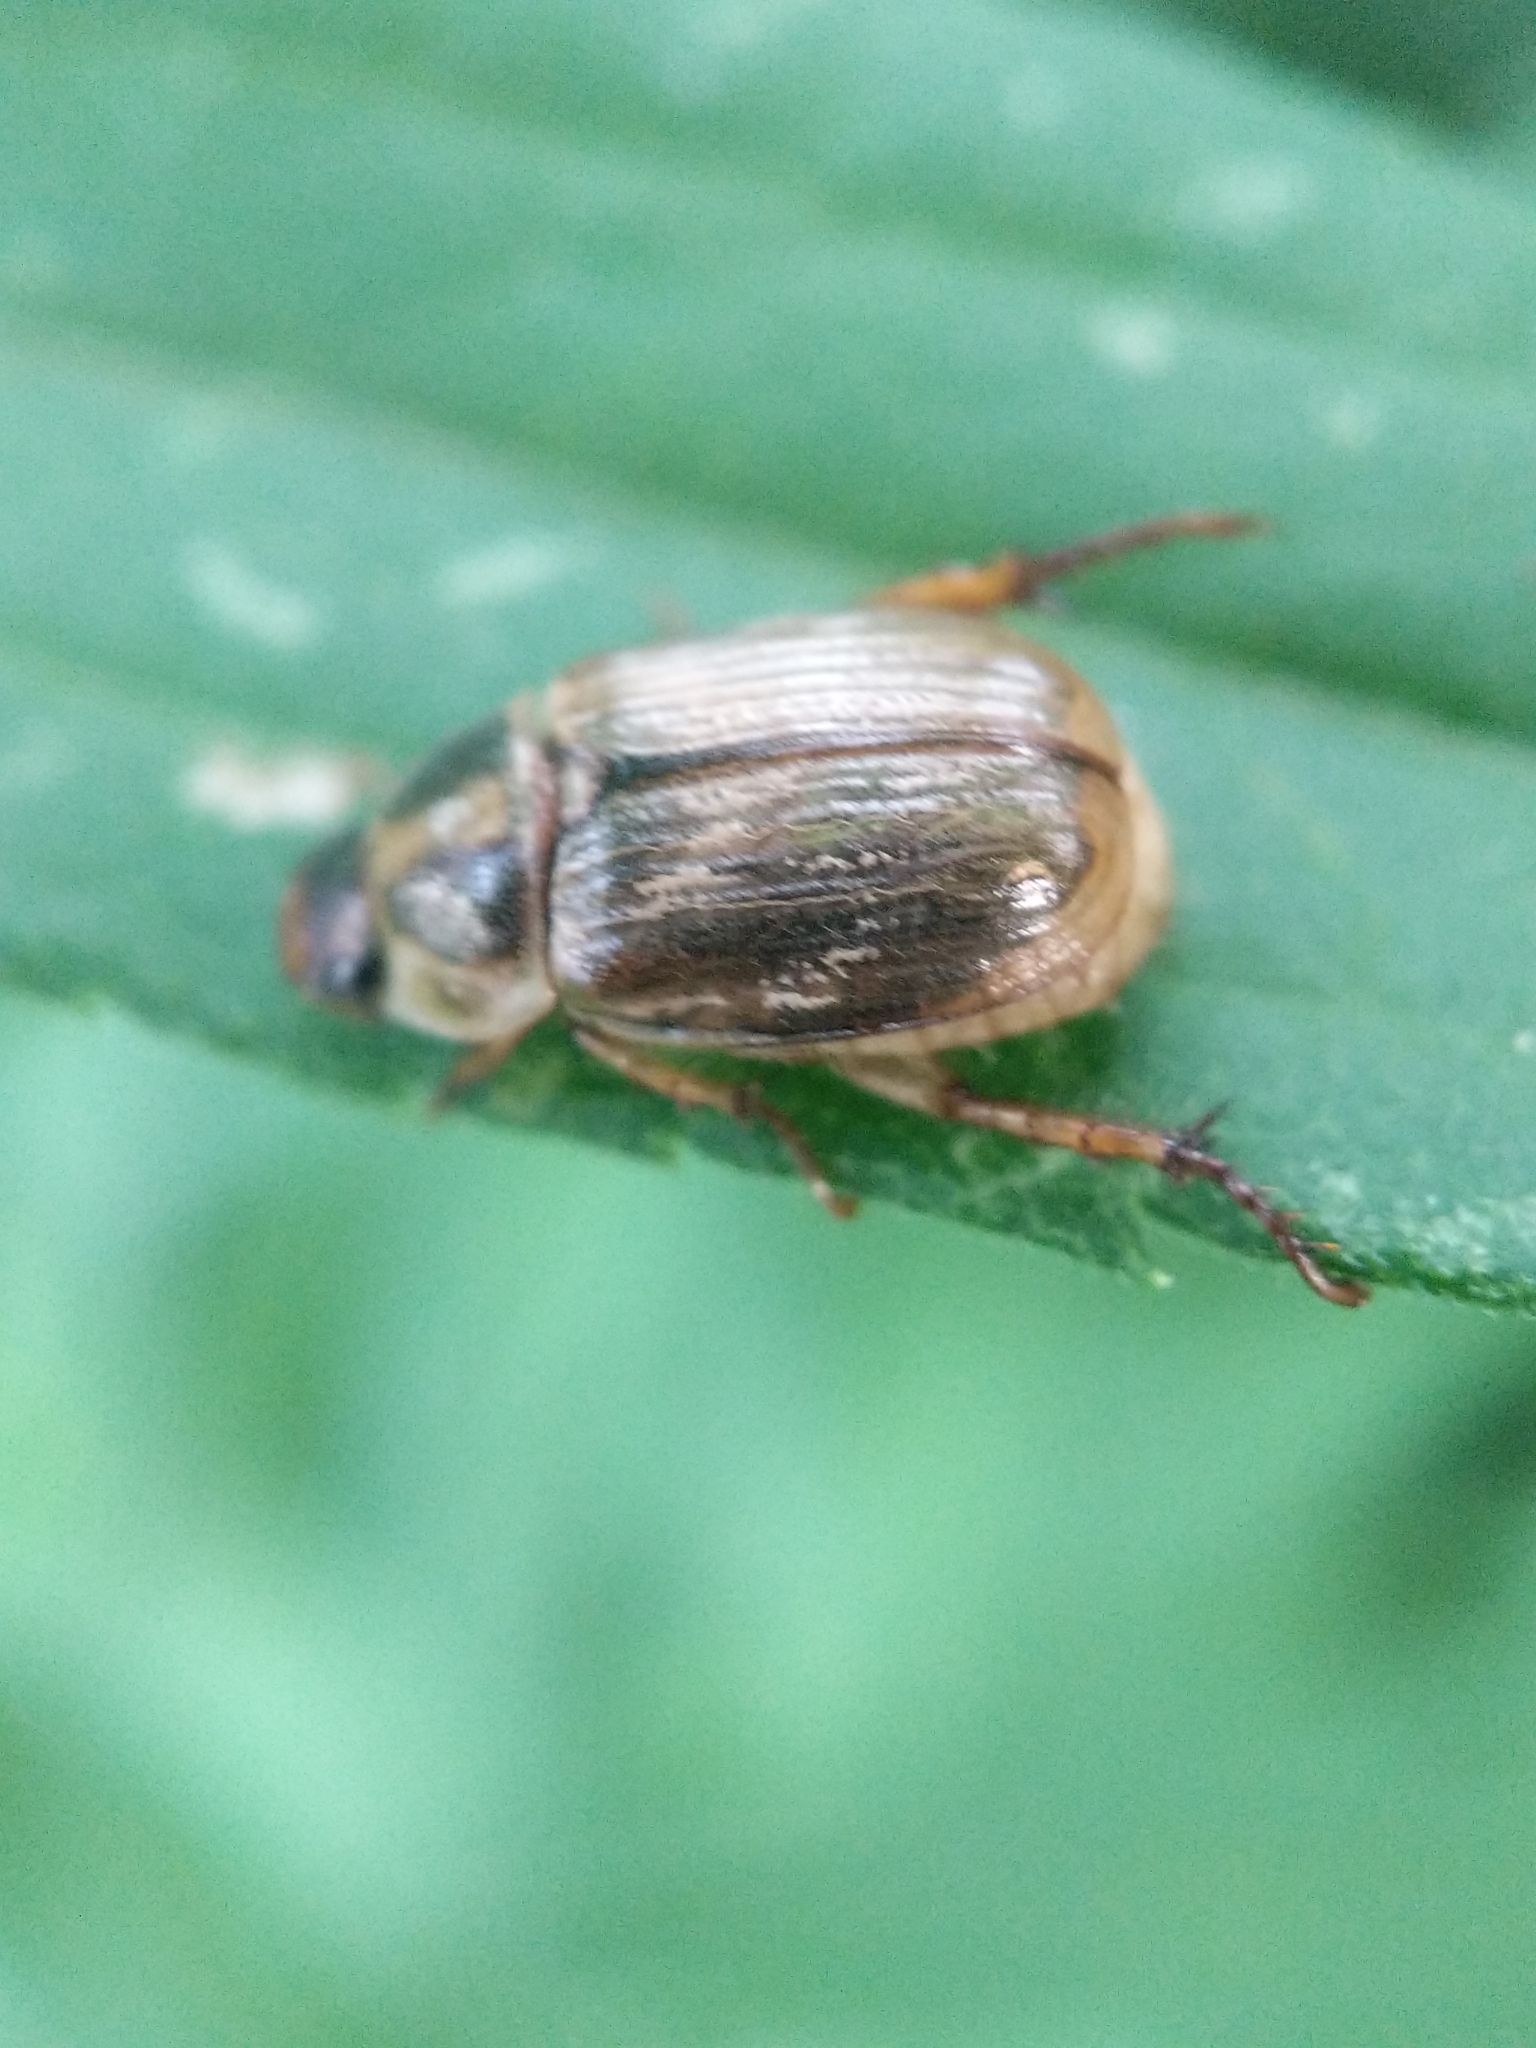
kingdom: Animalia
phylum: Arthropoda
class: Insecta
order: Coleoptera
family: Scarabaeidae
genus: Exomala
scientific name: Exomala orientalis
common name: Oriental beetle
